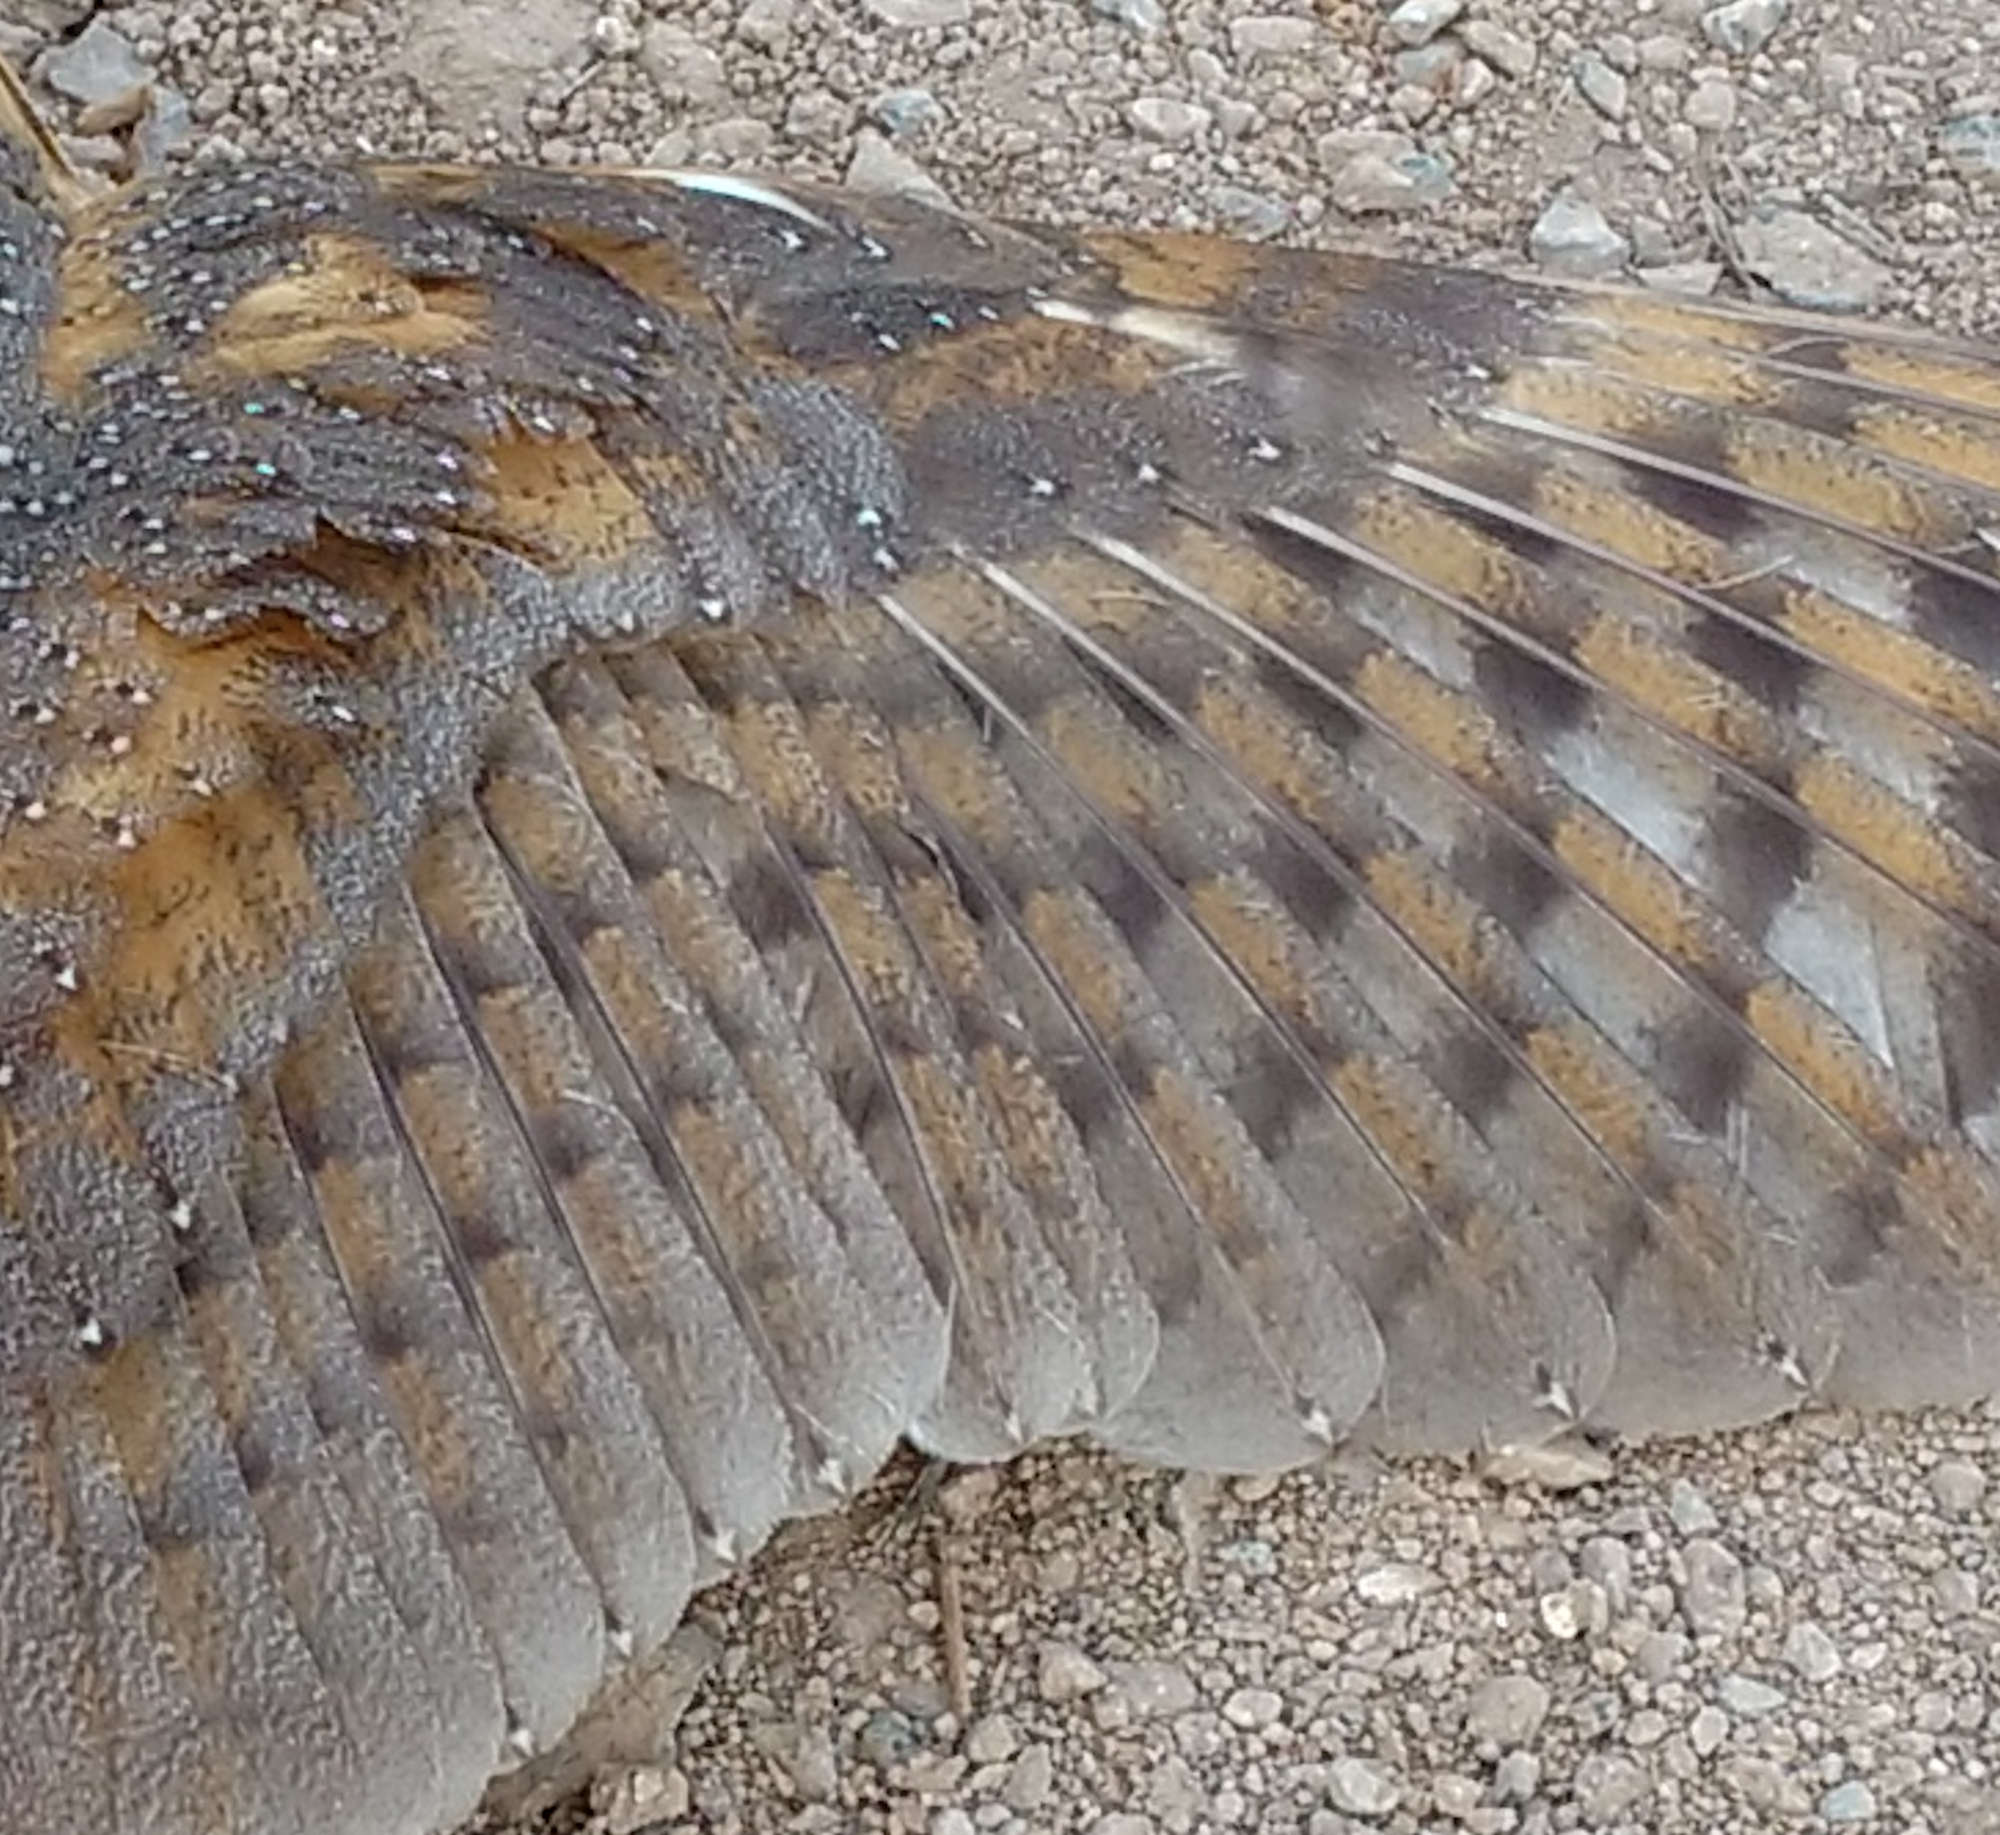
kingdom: Animalia
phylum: Chordata
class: Aves
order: Strigiformes
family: Tytonidae
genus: Tyto
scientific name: Tyto alba
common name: Barn owl
